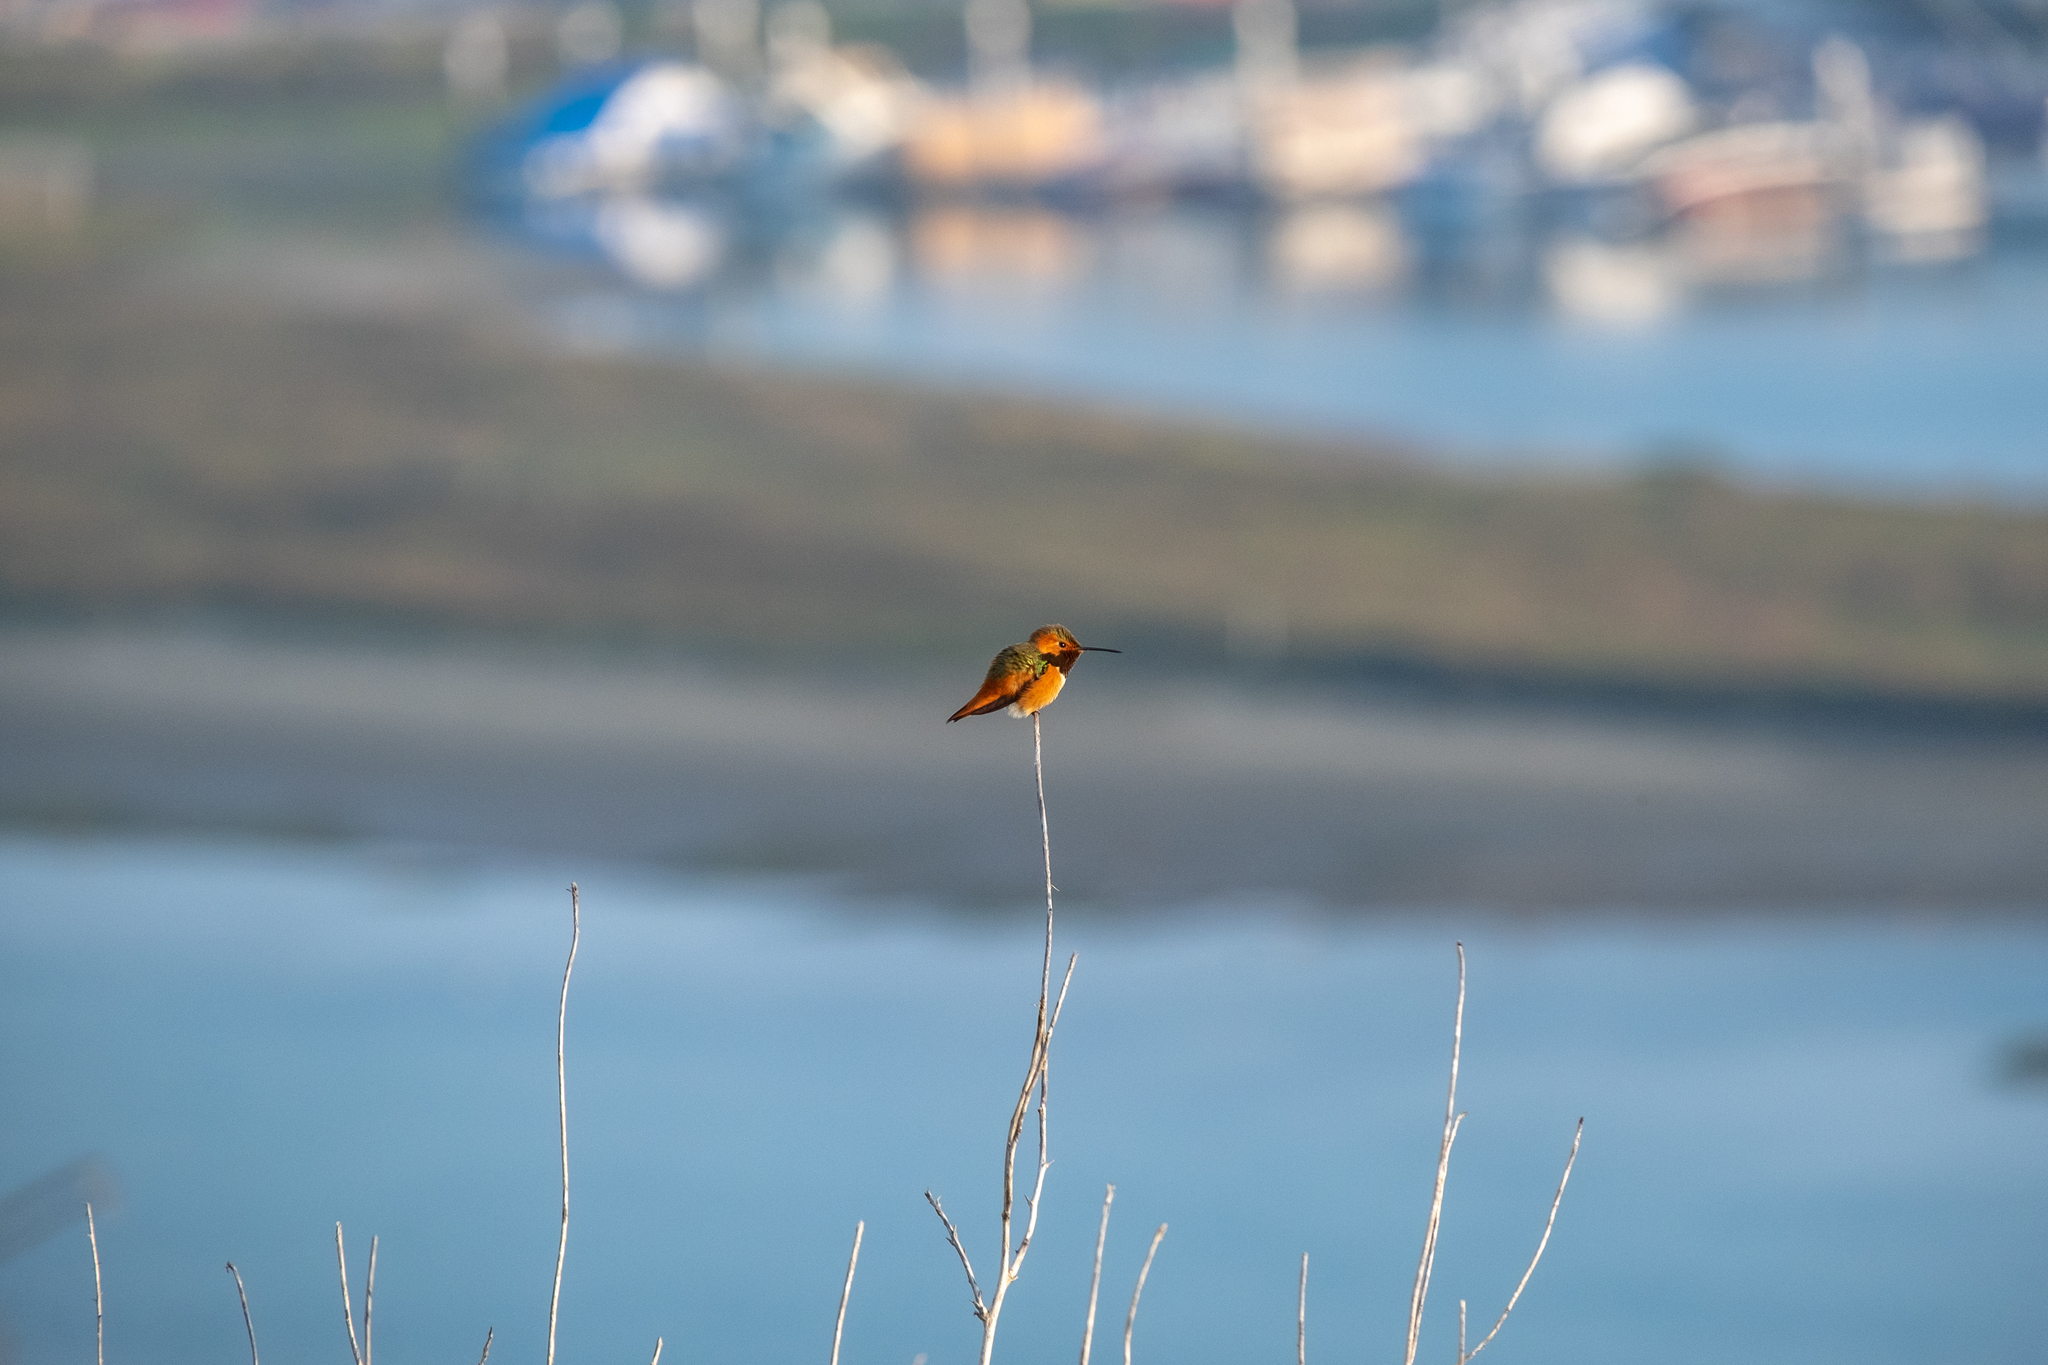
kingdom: Animalia
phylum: Chordata
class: Aves
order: Apodiformes
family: Trochilidae
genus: Selasphorus
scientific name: Selasphorus sasin
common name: Allen's hummingbird
